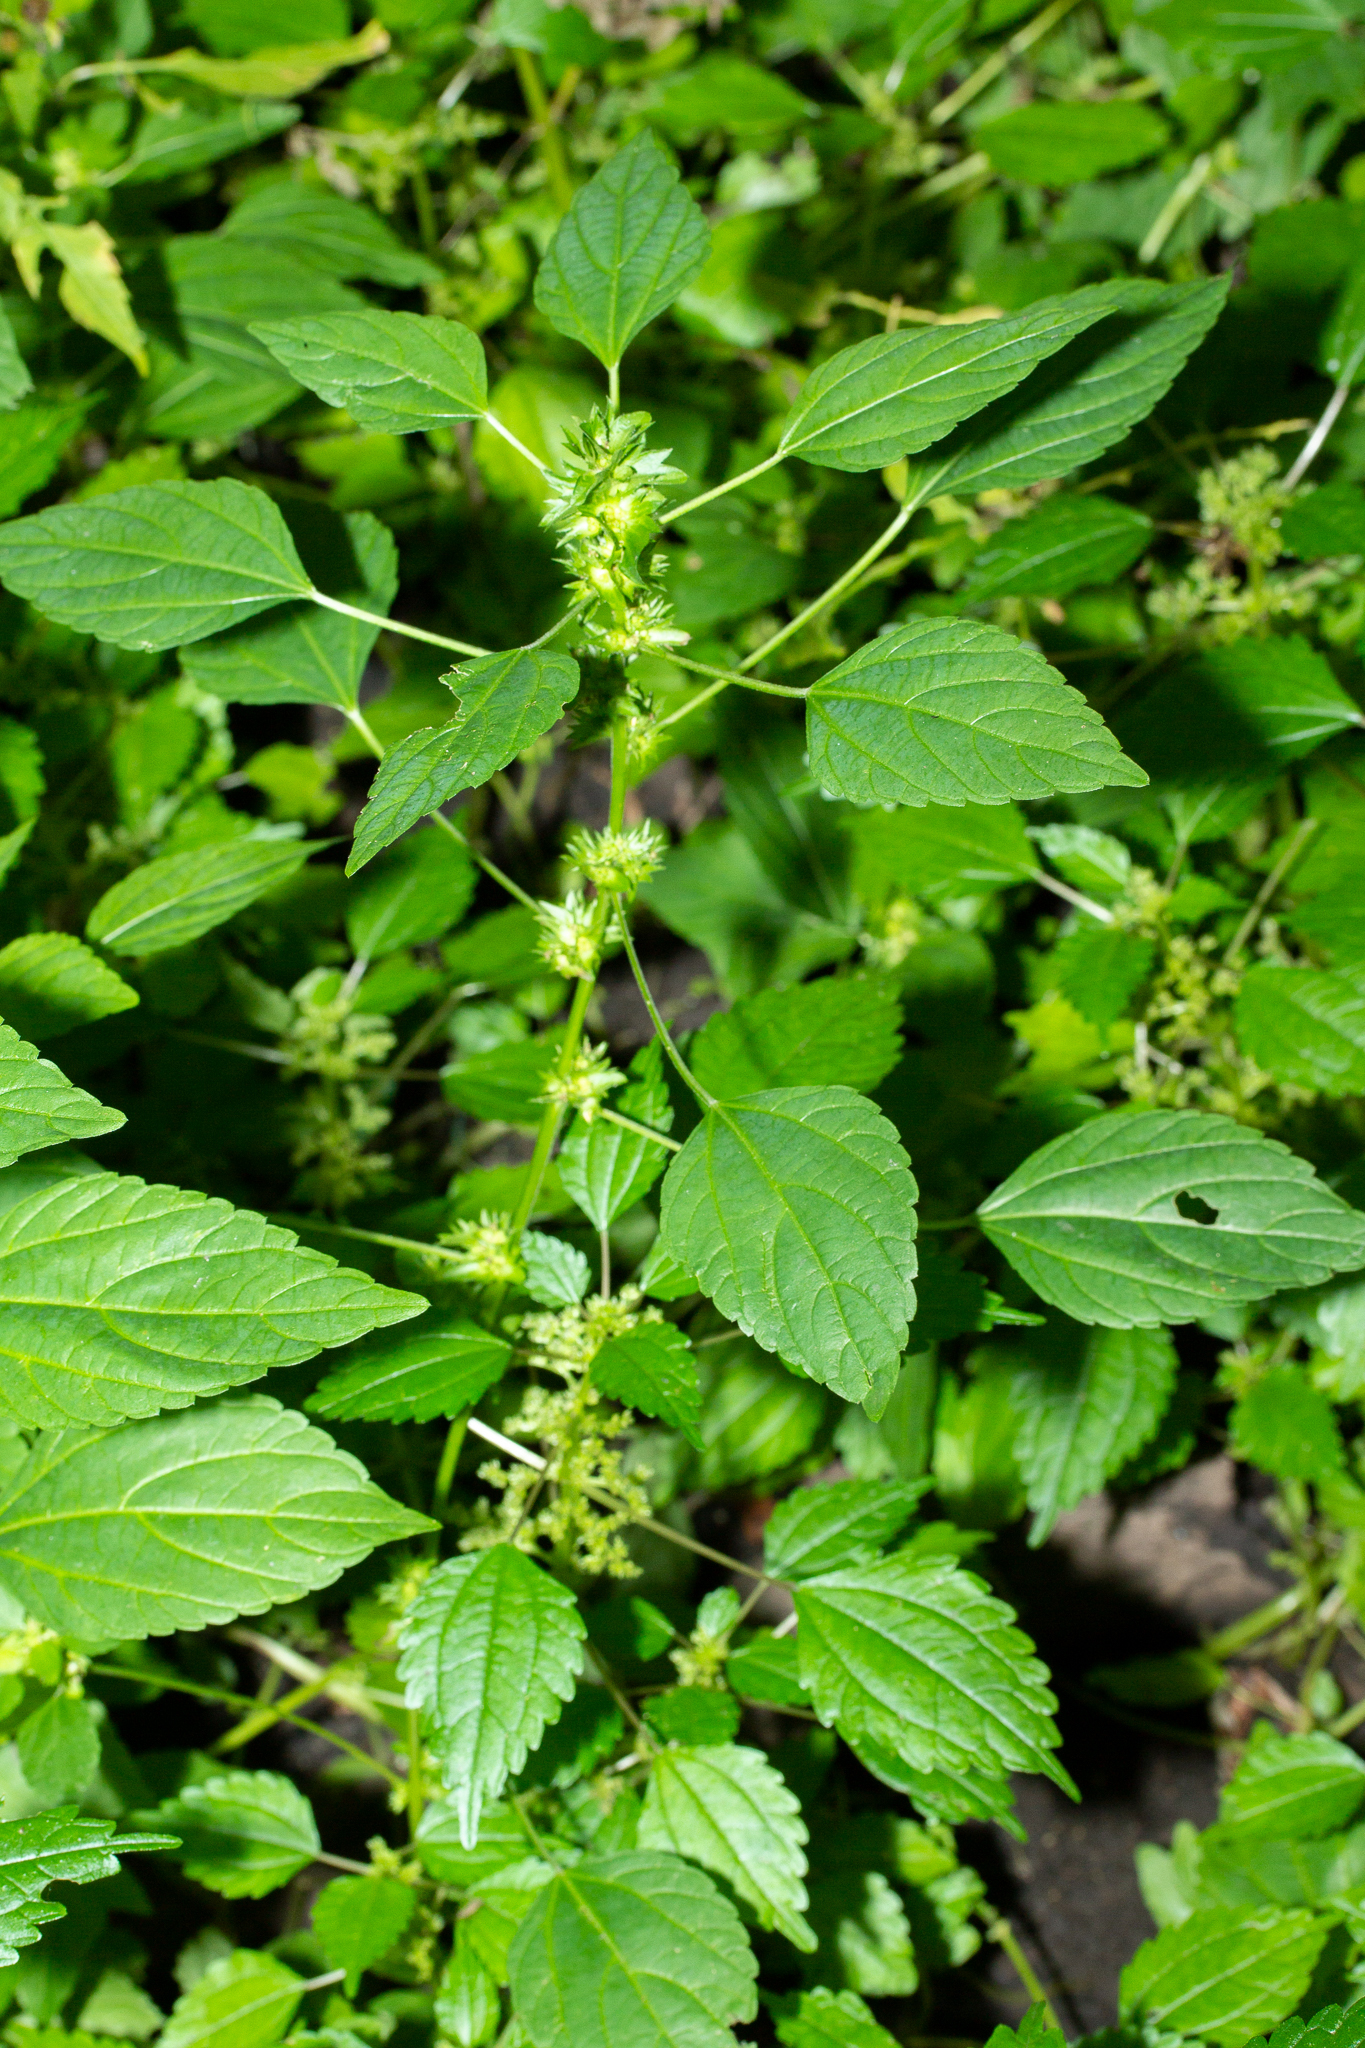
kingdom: Plantae
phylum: Tracheophyta
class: Magnoliopsida
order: Malpighiales
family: Euphorbiaceae
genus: Acalypha
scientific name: Acalypha rhomboidea
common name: Rhombic copperleaf
